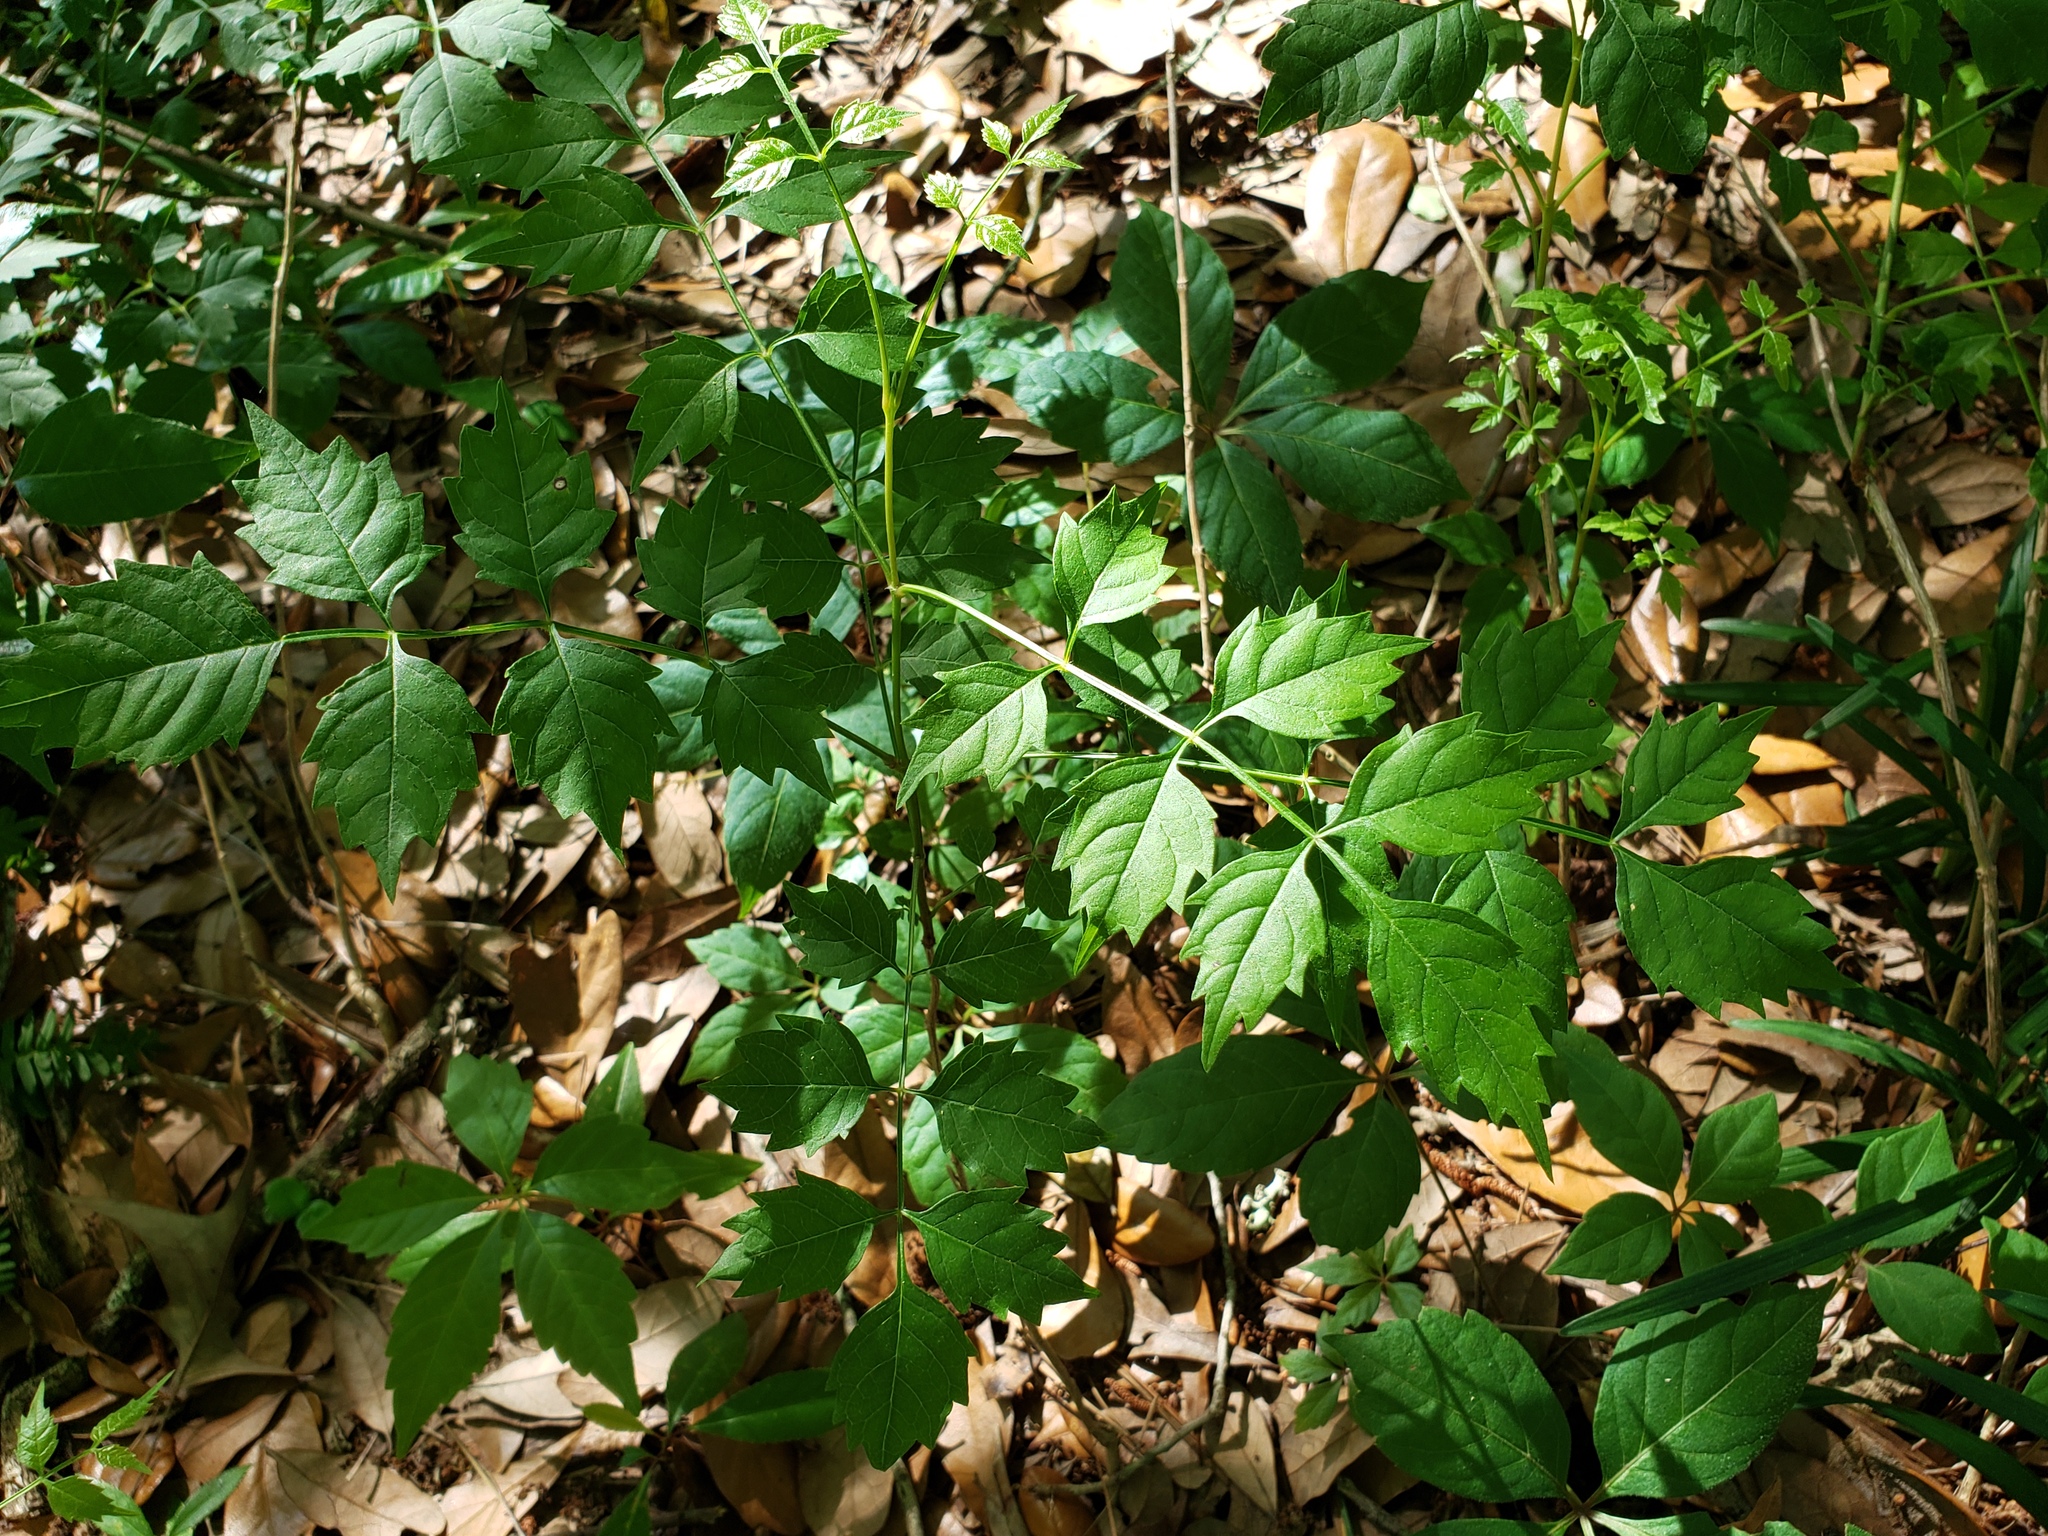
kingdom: Plantae
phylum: Tracheophyta
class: Magnoliopsida
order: Lamiales
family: Bignoniaceae
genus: Campsis
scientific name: Campsis radicans
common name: Trumpet-creeper
